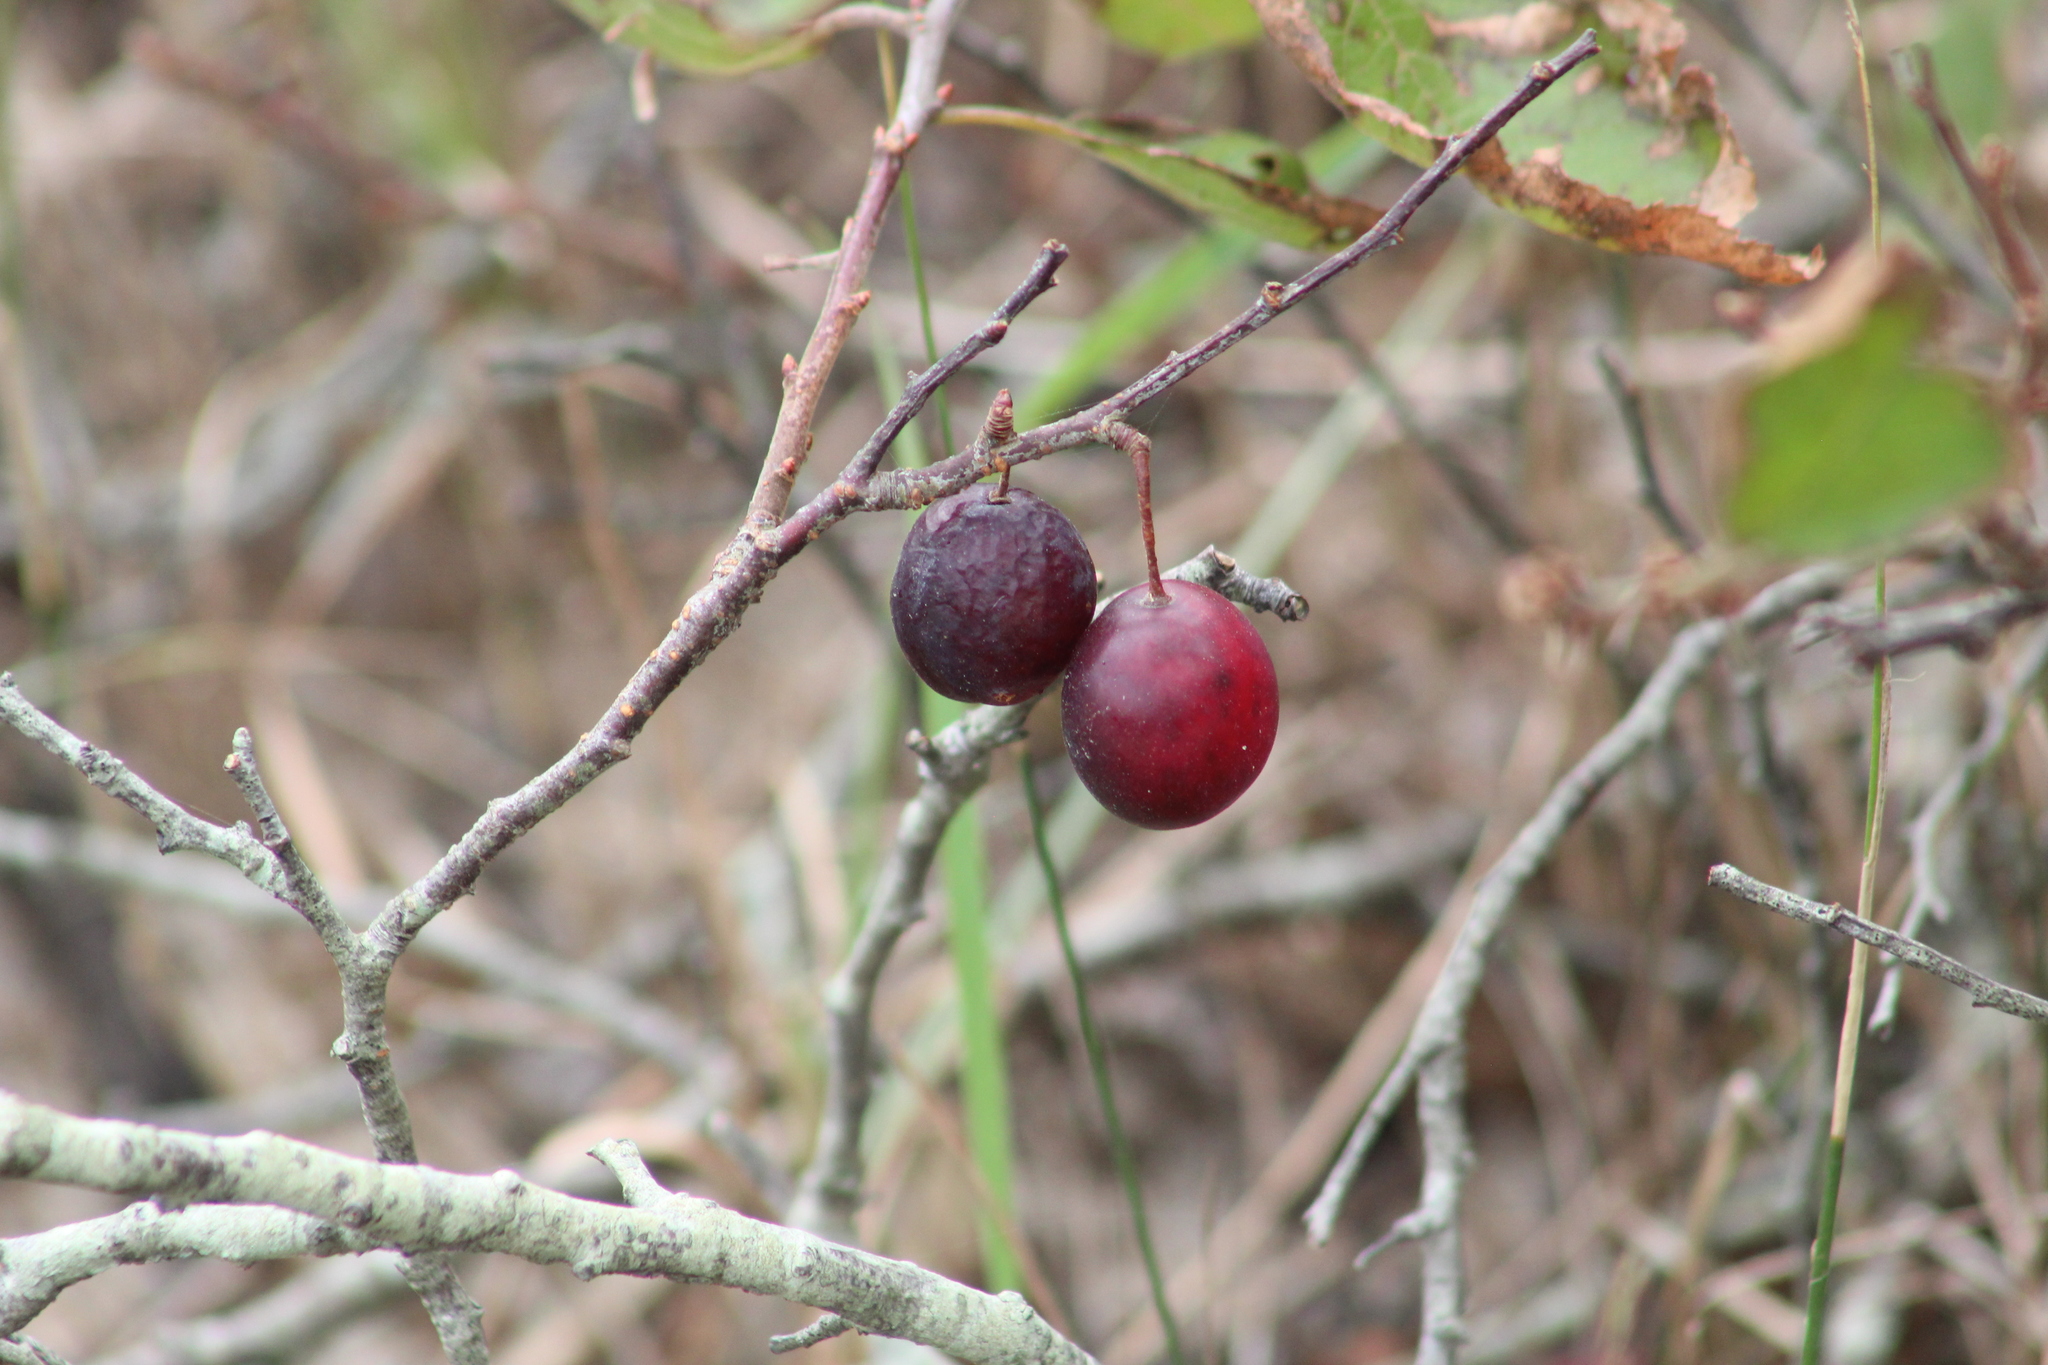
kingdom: Plantae
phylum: Tracheophyta
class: Magnoliopsida
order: Rosales
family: Rosaceae
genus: Prunus
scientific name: Prunus maritima
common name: Beach plum
